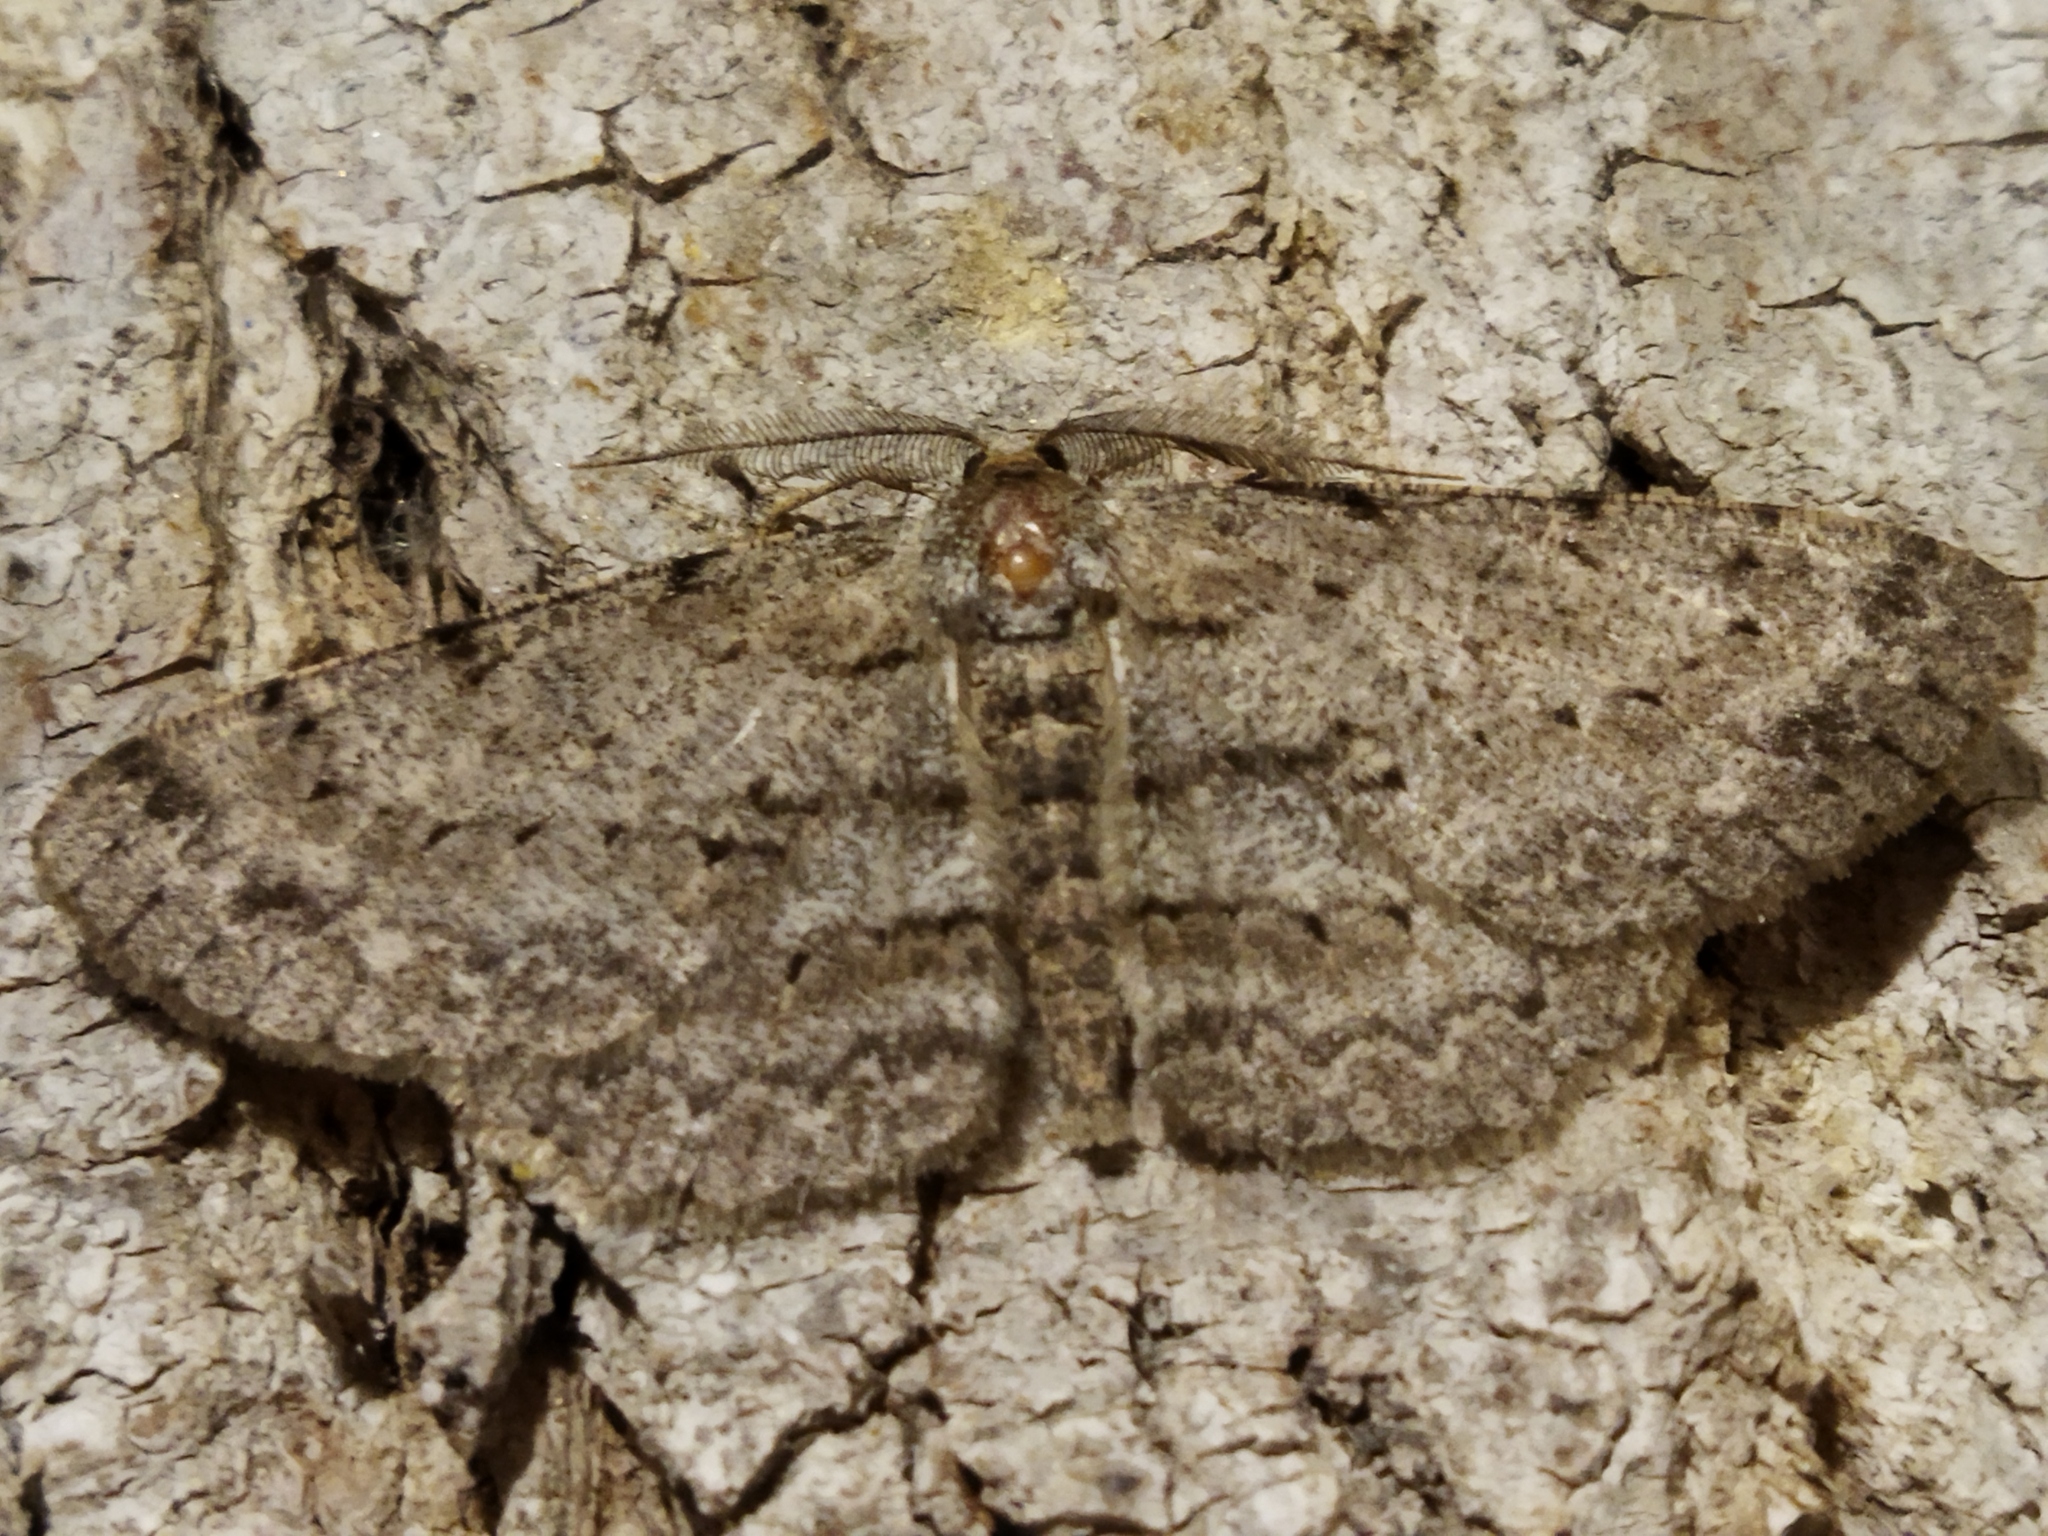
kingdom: Animalia
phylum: Arthropoda
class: Insecta
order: Lepidoptera
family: Geometridae
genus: Hypomecis
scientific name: Hypomecis punctinalis
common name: Pale oak beauty
